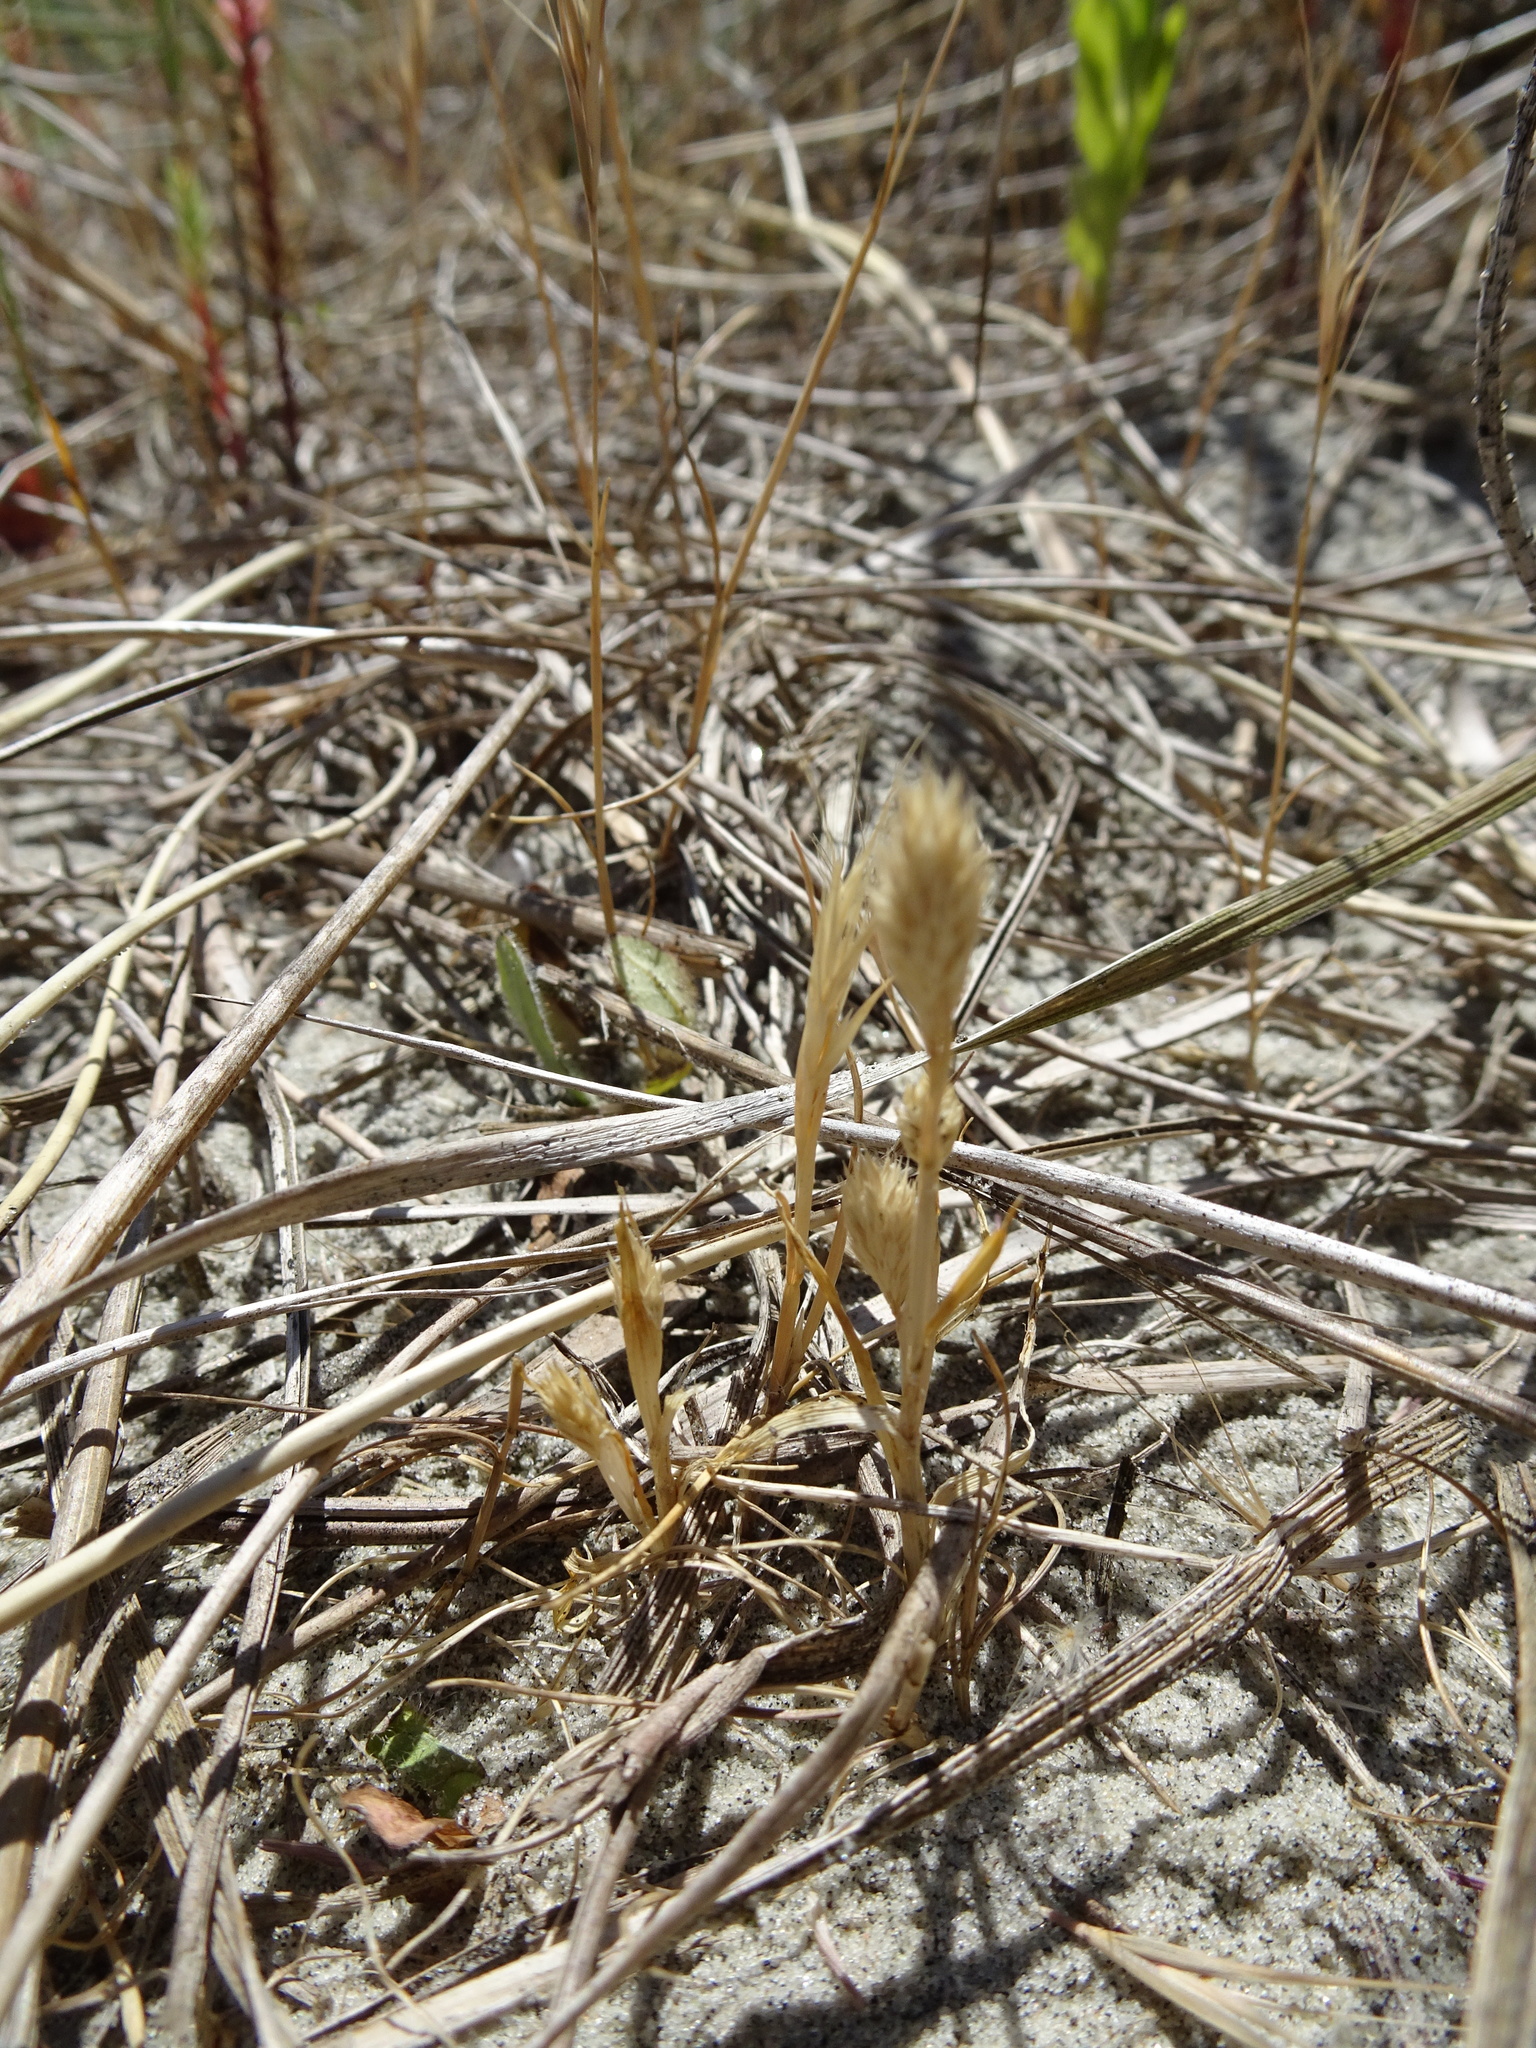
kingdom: Plantae
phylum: Tracheophyta
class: Liliopsida
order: Poales
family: Poaceae
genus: Phleum
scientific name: Phleum arenarium
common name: Sand cat's-tail
